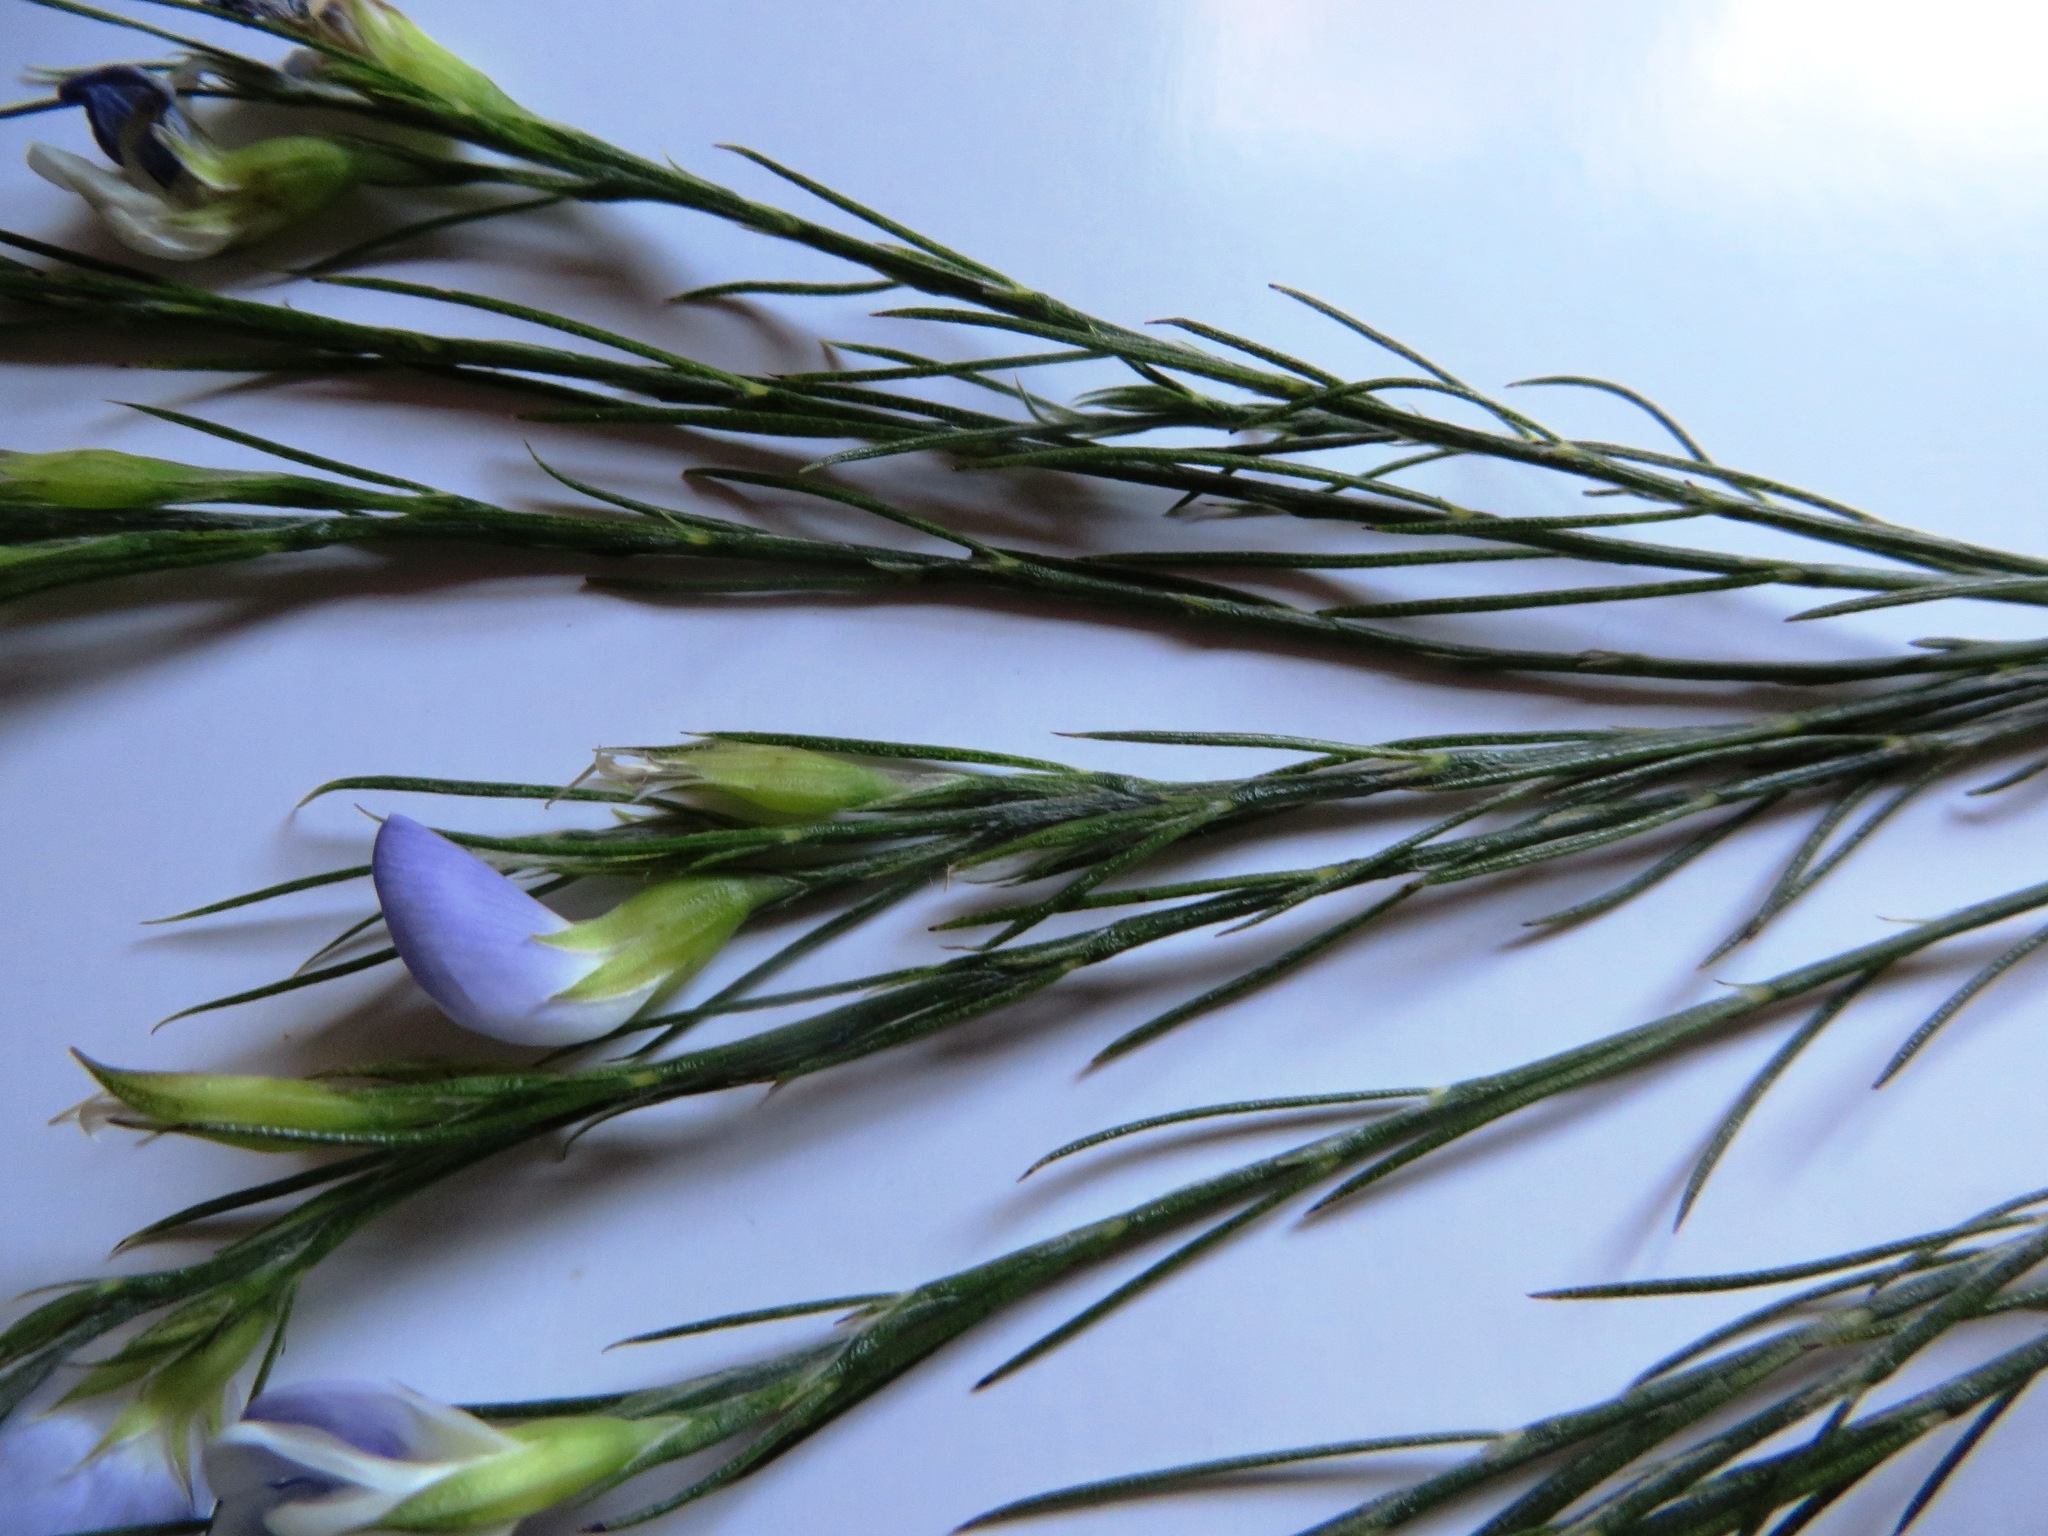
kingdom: Plantae
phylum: Tracheophyta
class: Magnoliopsida
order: Fabales
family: Fabaceae
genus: Psoralea
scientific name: Psoralea gigantea
